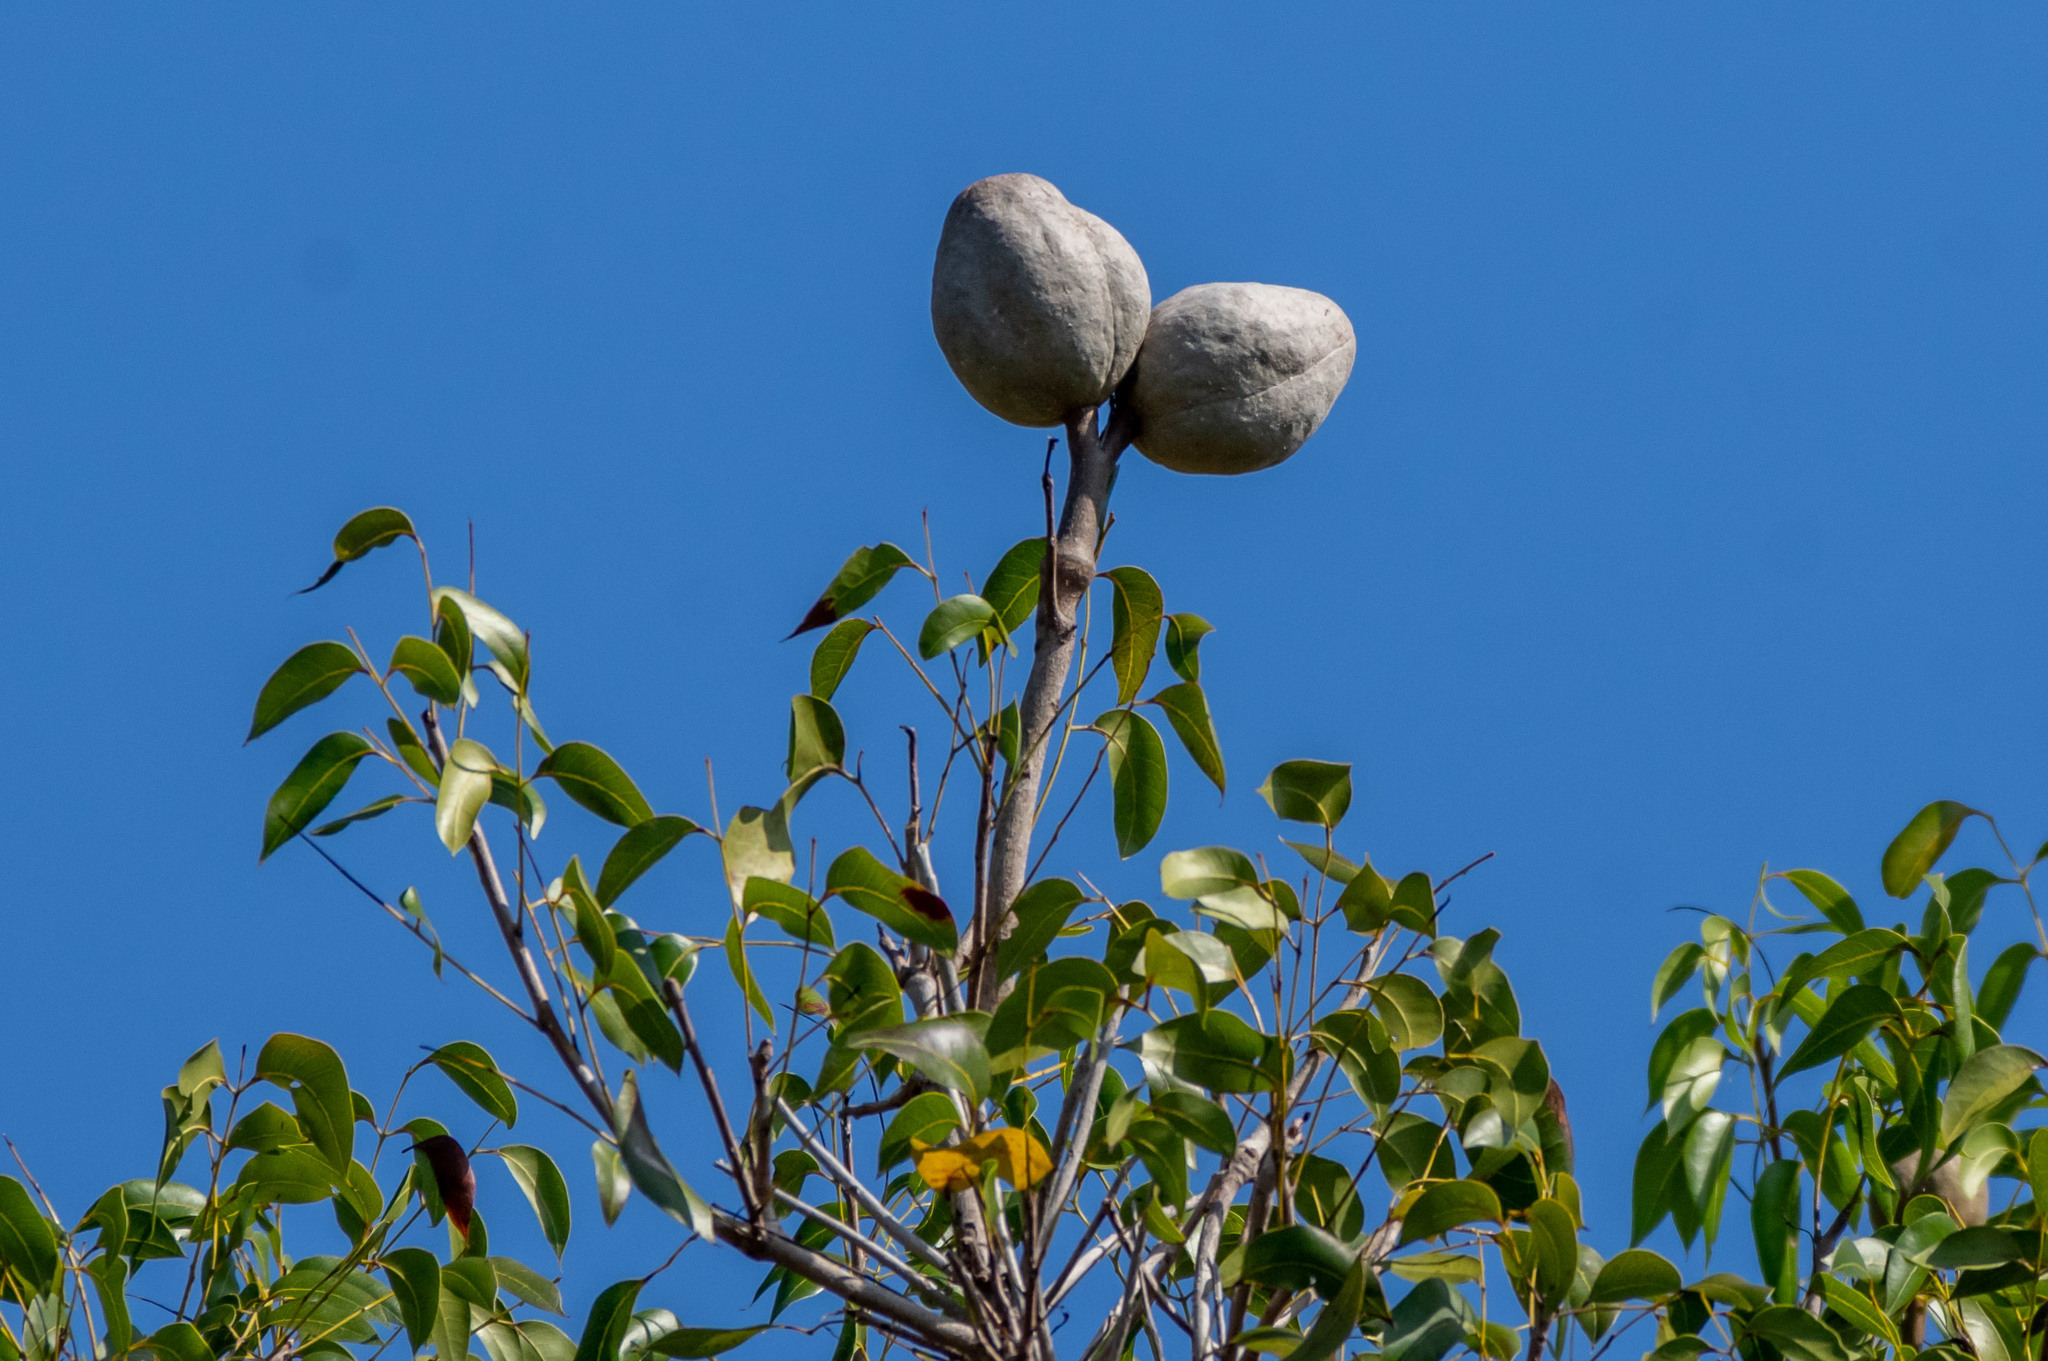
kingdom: Plantae
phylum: Tracheophyta
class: Magnoliopsida
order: Sapindales
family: Meliaceae
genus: Swietenia
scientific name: Swietenia mahagoni
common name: West indian mahogany
